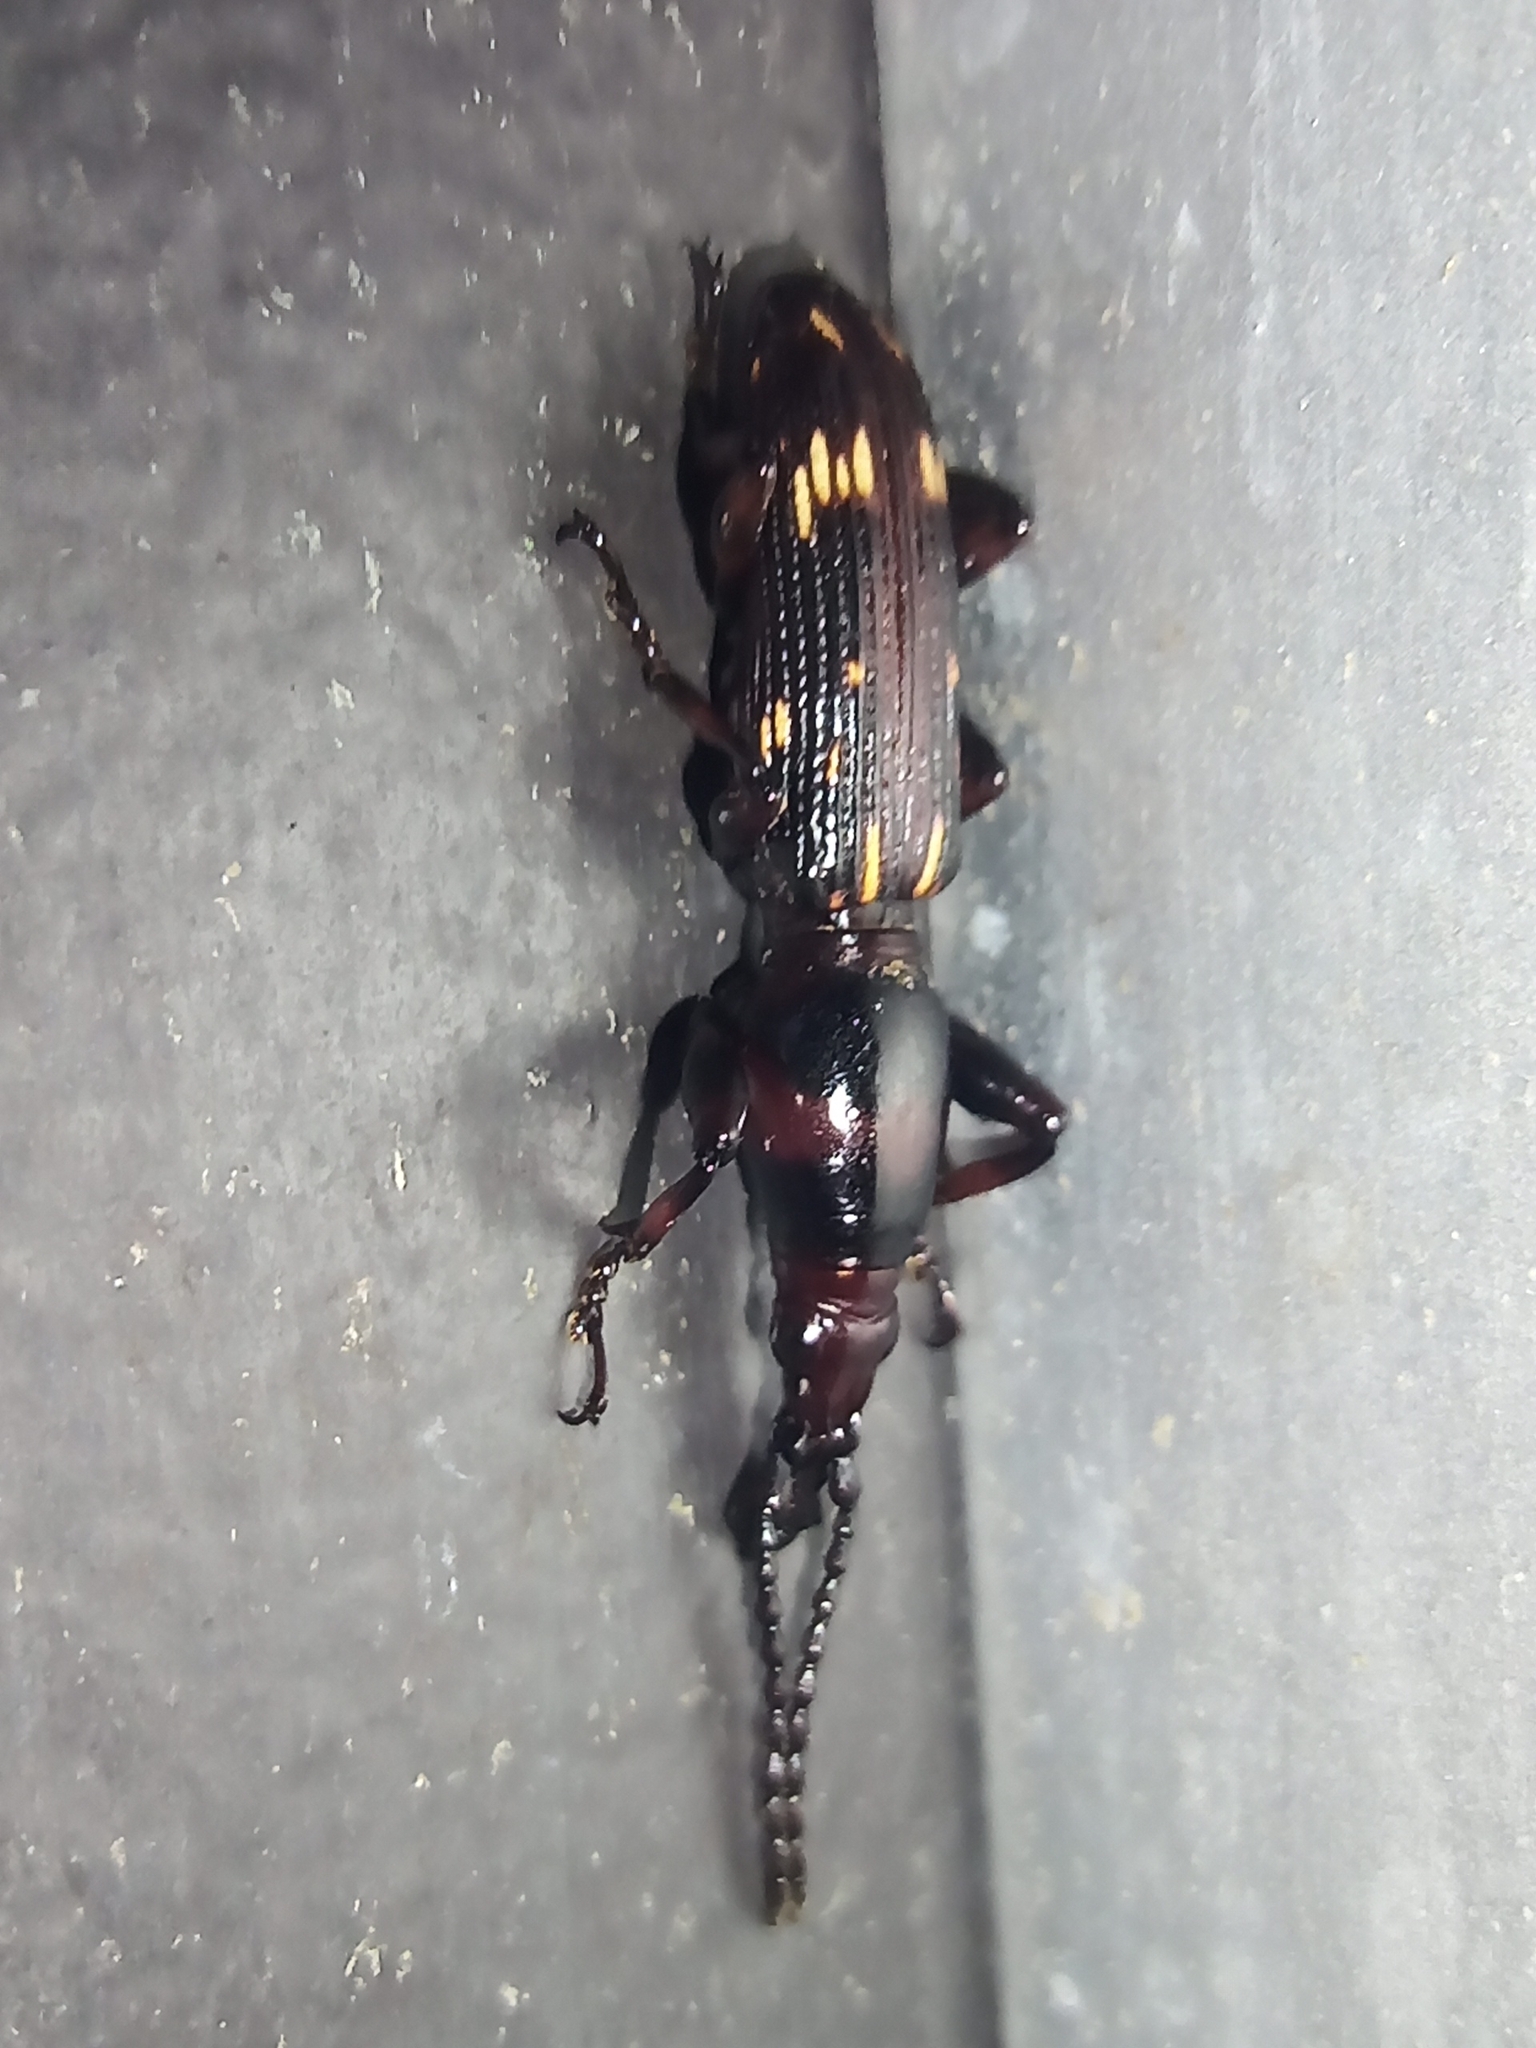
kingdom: Animalia
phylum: Arthropoda
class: Insecta
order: Coleoptera
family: Brentidae
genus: Arrenodes
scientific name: Arrenodes minutus
